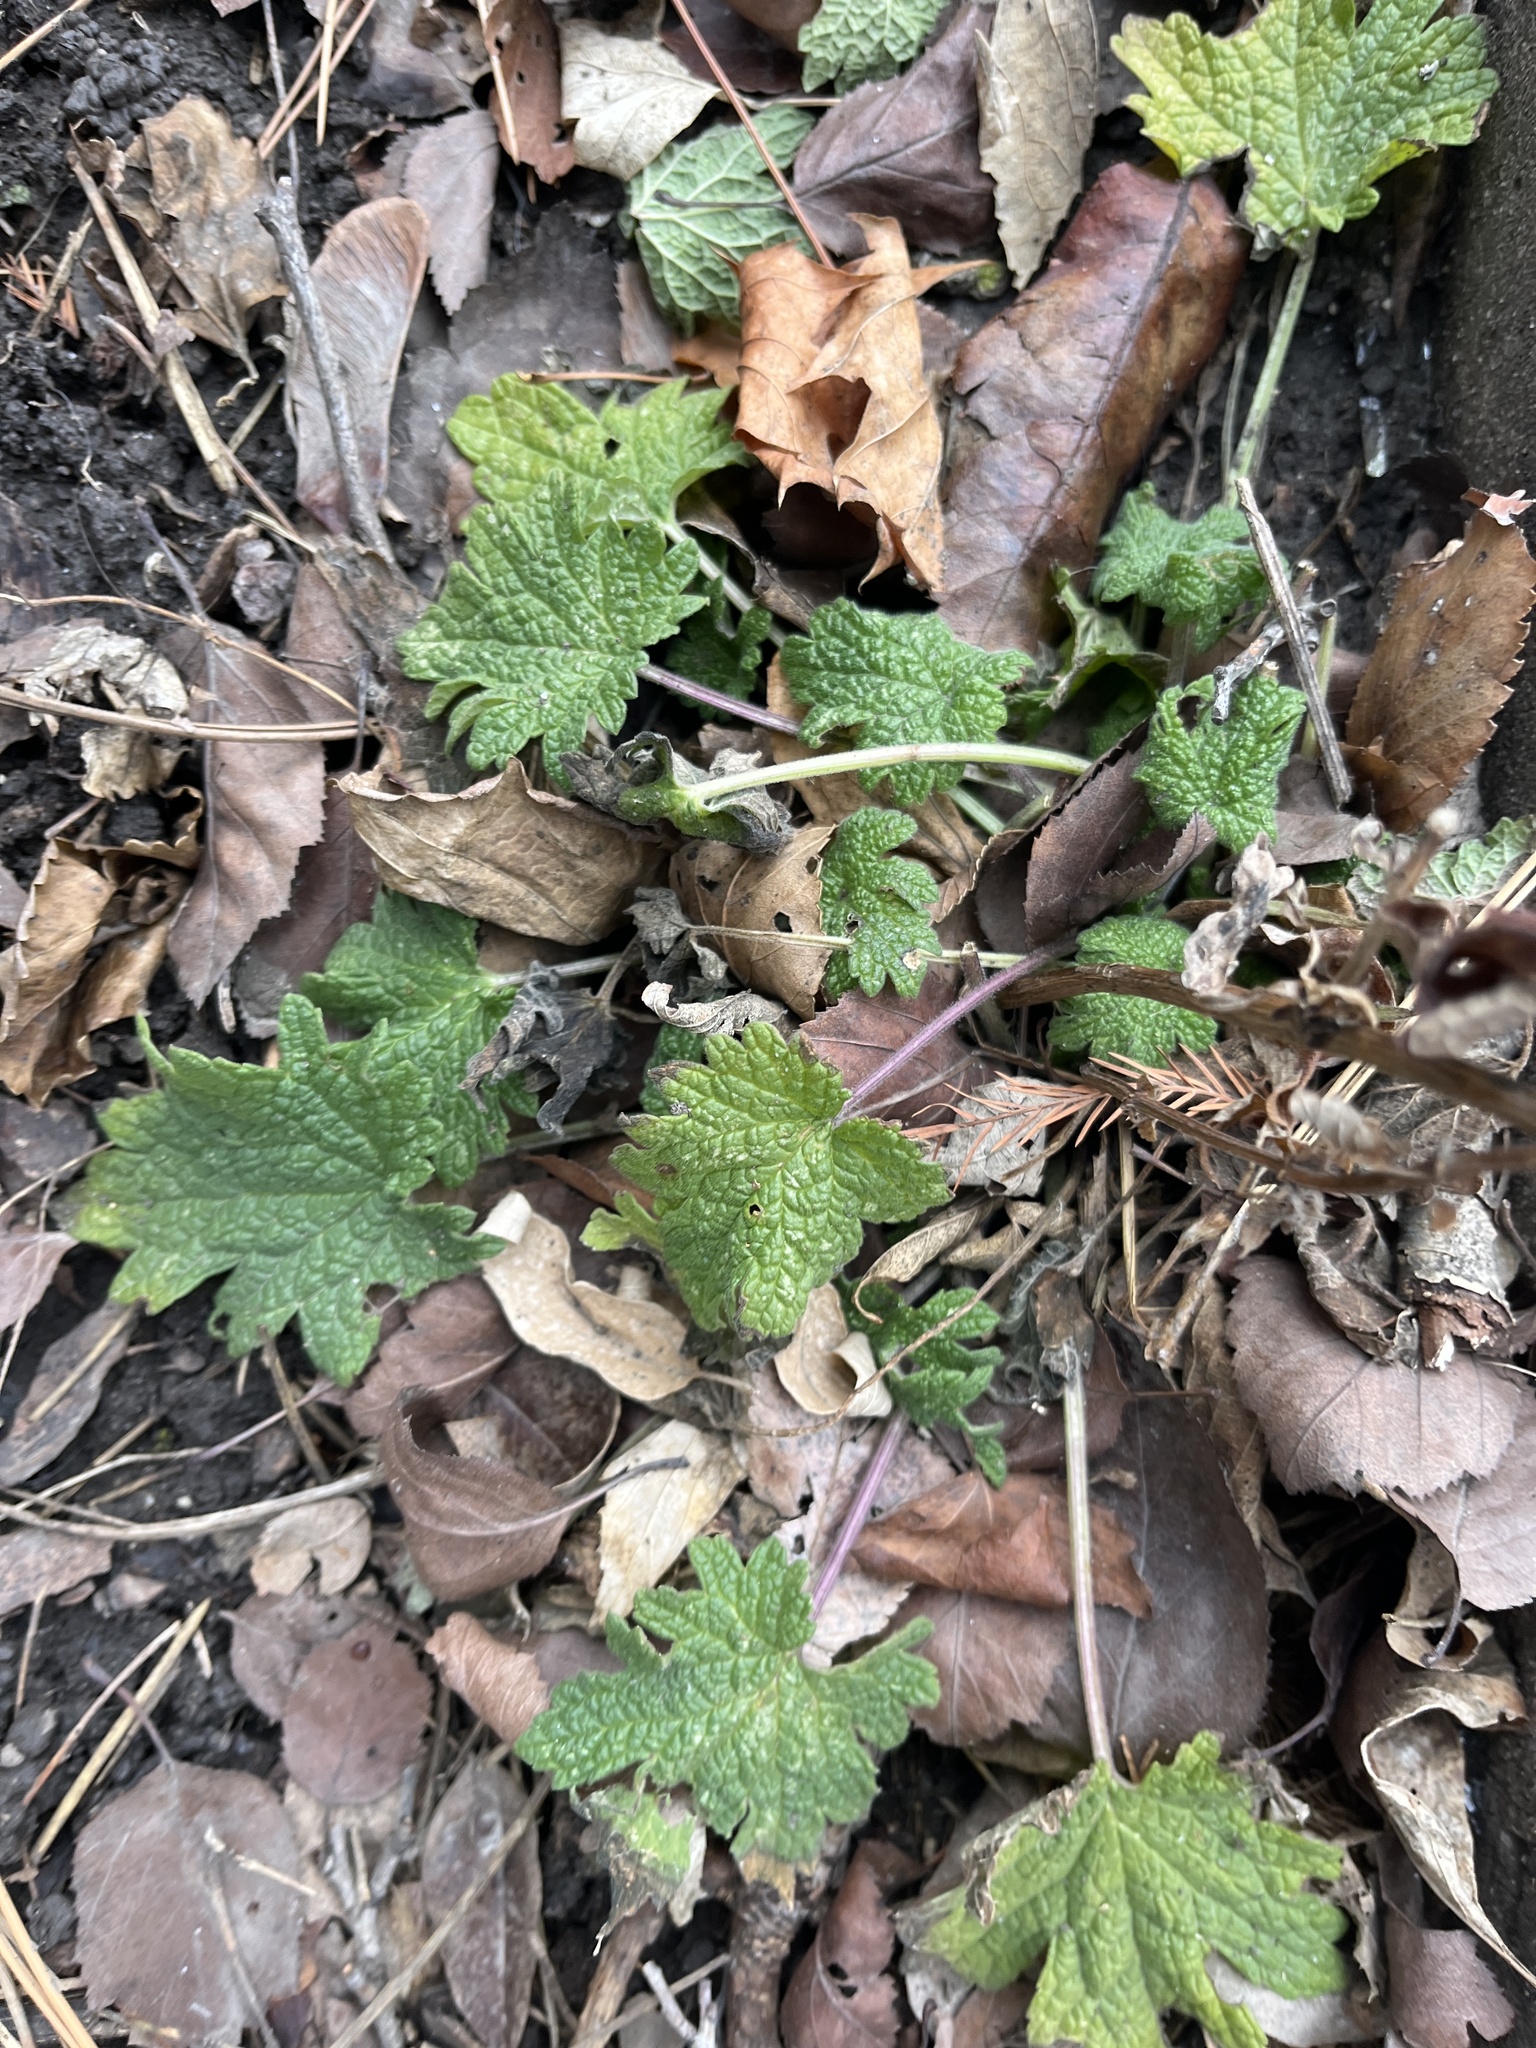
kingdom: Plantae
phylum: Tracheophyta
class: Magnoliopsida
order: Lamiales
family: Lamiaceae
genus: Leonurus
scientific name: Leonurus cardiaca
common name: Motherwort
